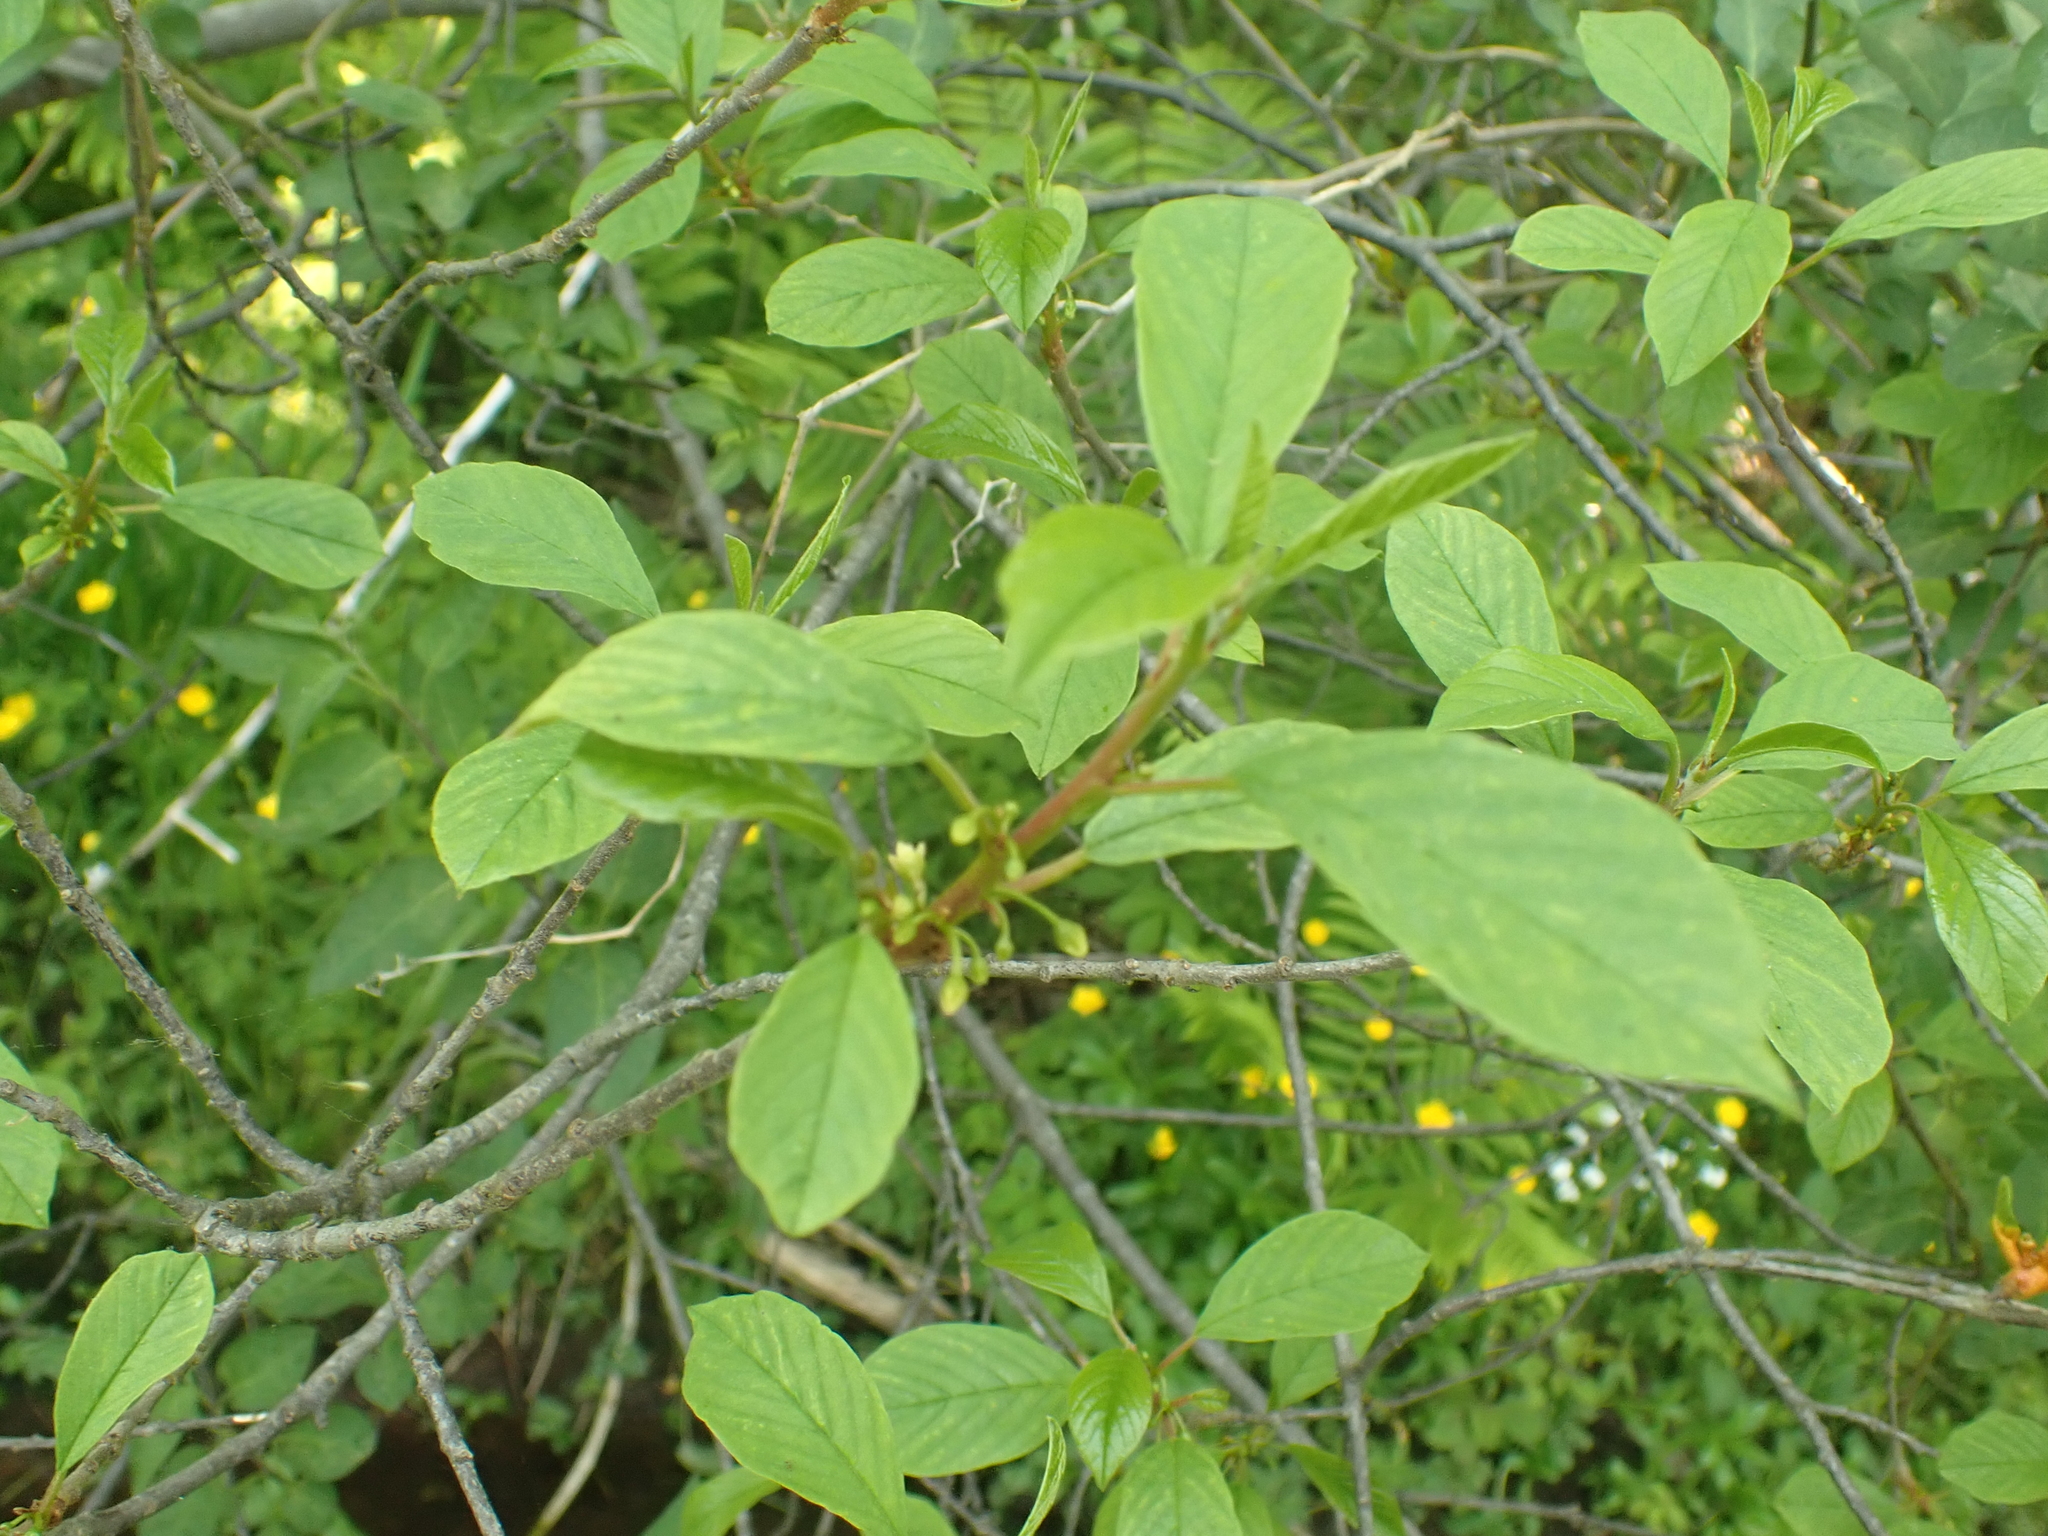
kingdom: Plantae
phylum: Tracheophyta
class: Magnoliopsida
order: Rosales
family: Rhamnaceae
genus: Frangula
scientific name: Frangula alnus
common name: Alder buckthorn
